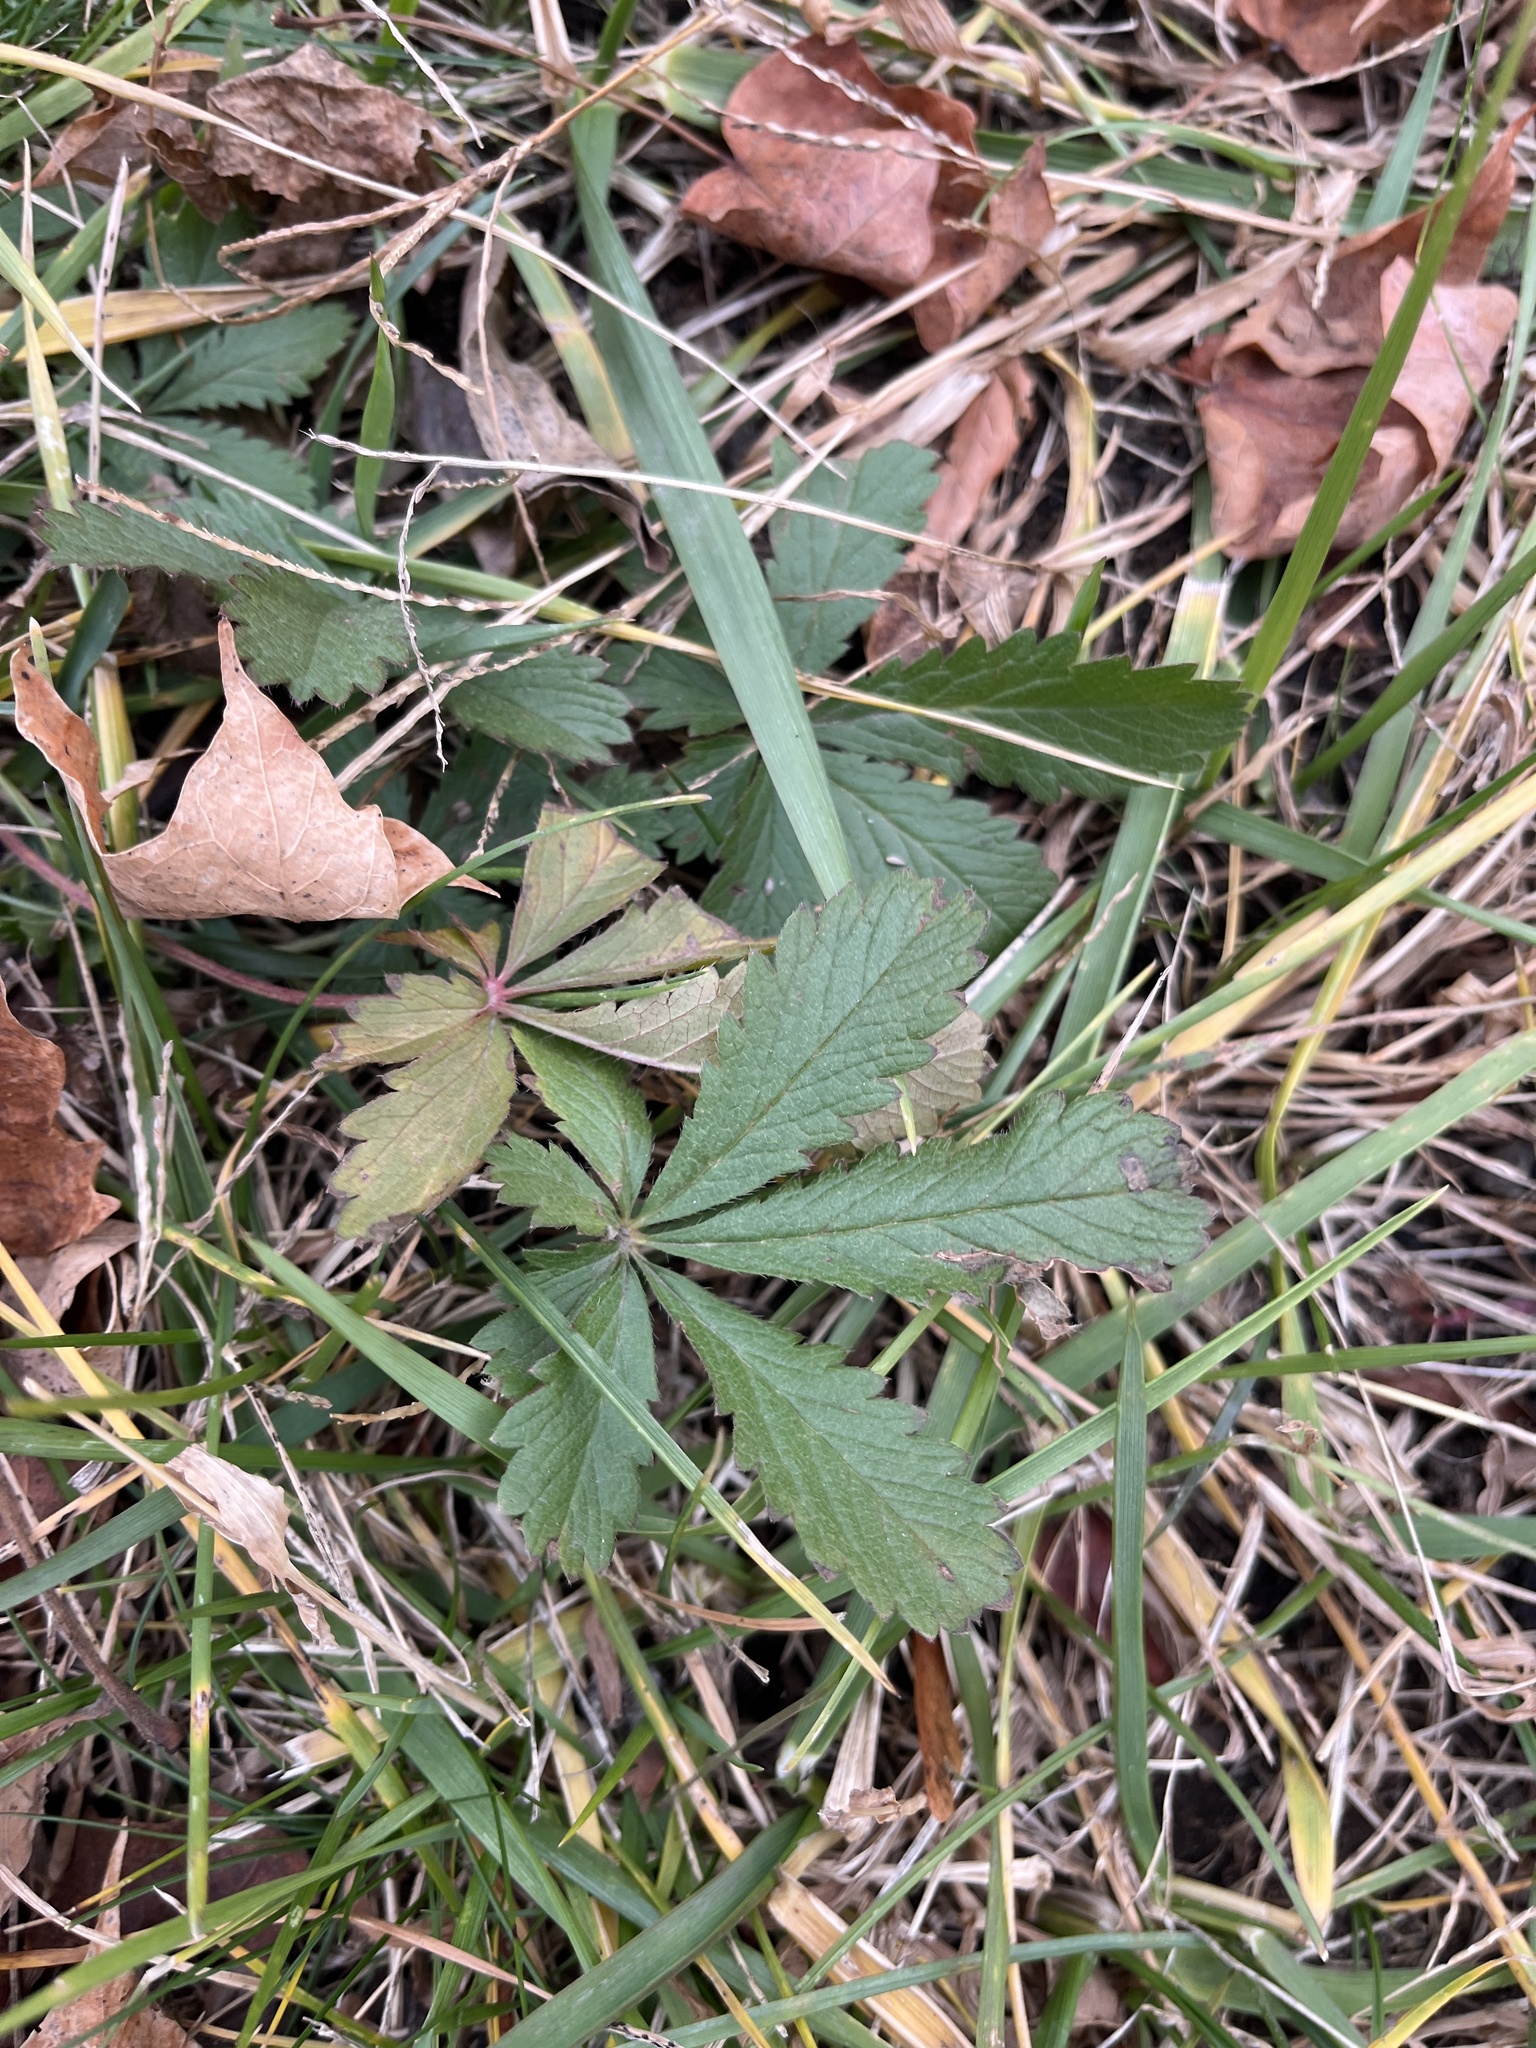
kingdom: Plantae
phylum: Tracheophyta
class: Magnoliopsida
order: Rosales
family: Rosaceae
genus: Potentilla
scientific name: Potentilla canadensis
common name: Canada cinquefoil
